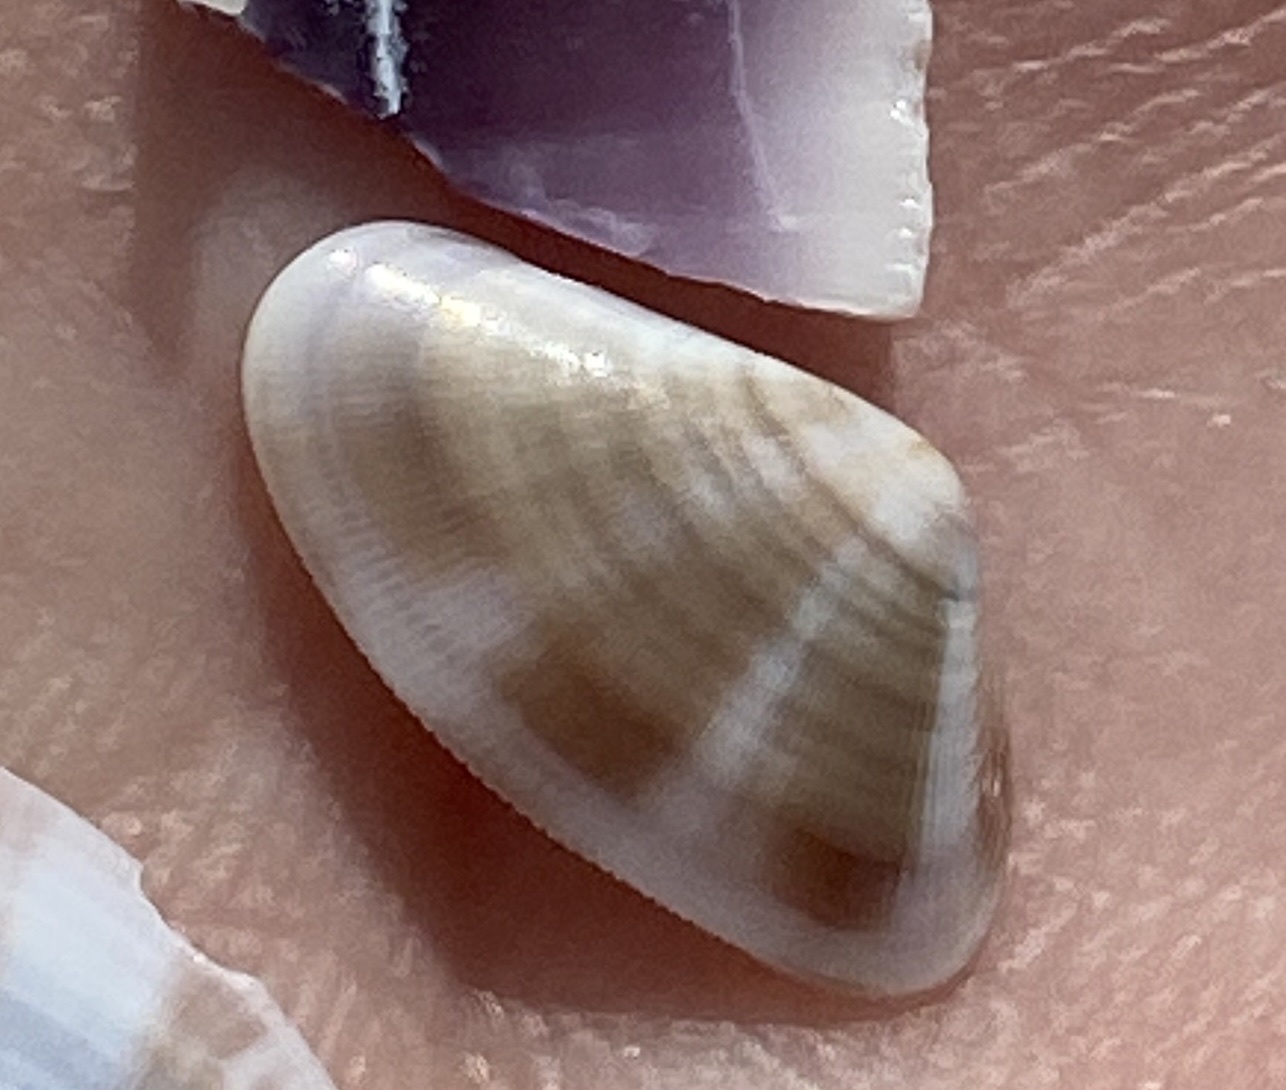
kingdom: Animalia
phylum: Mollusca
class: Bivalvia
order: Cardiida
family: Donacidae
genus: Donax
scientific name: Donax venustus
